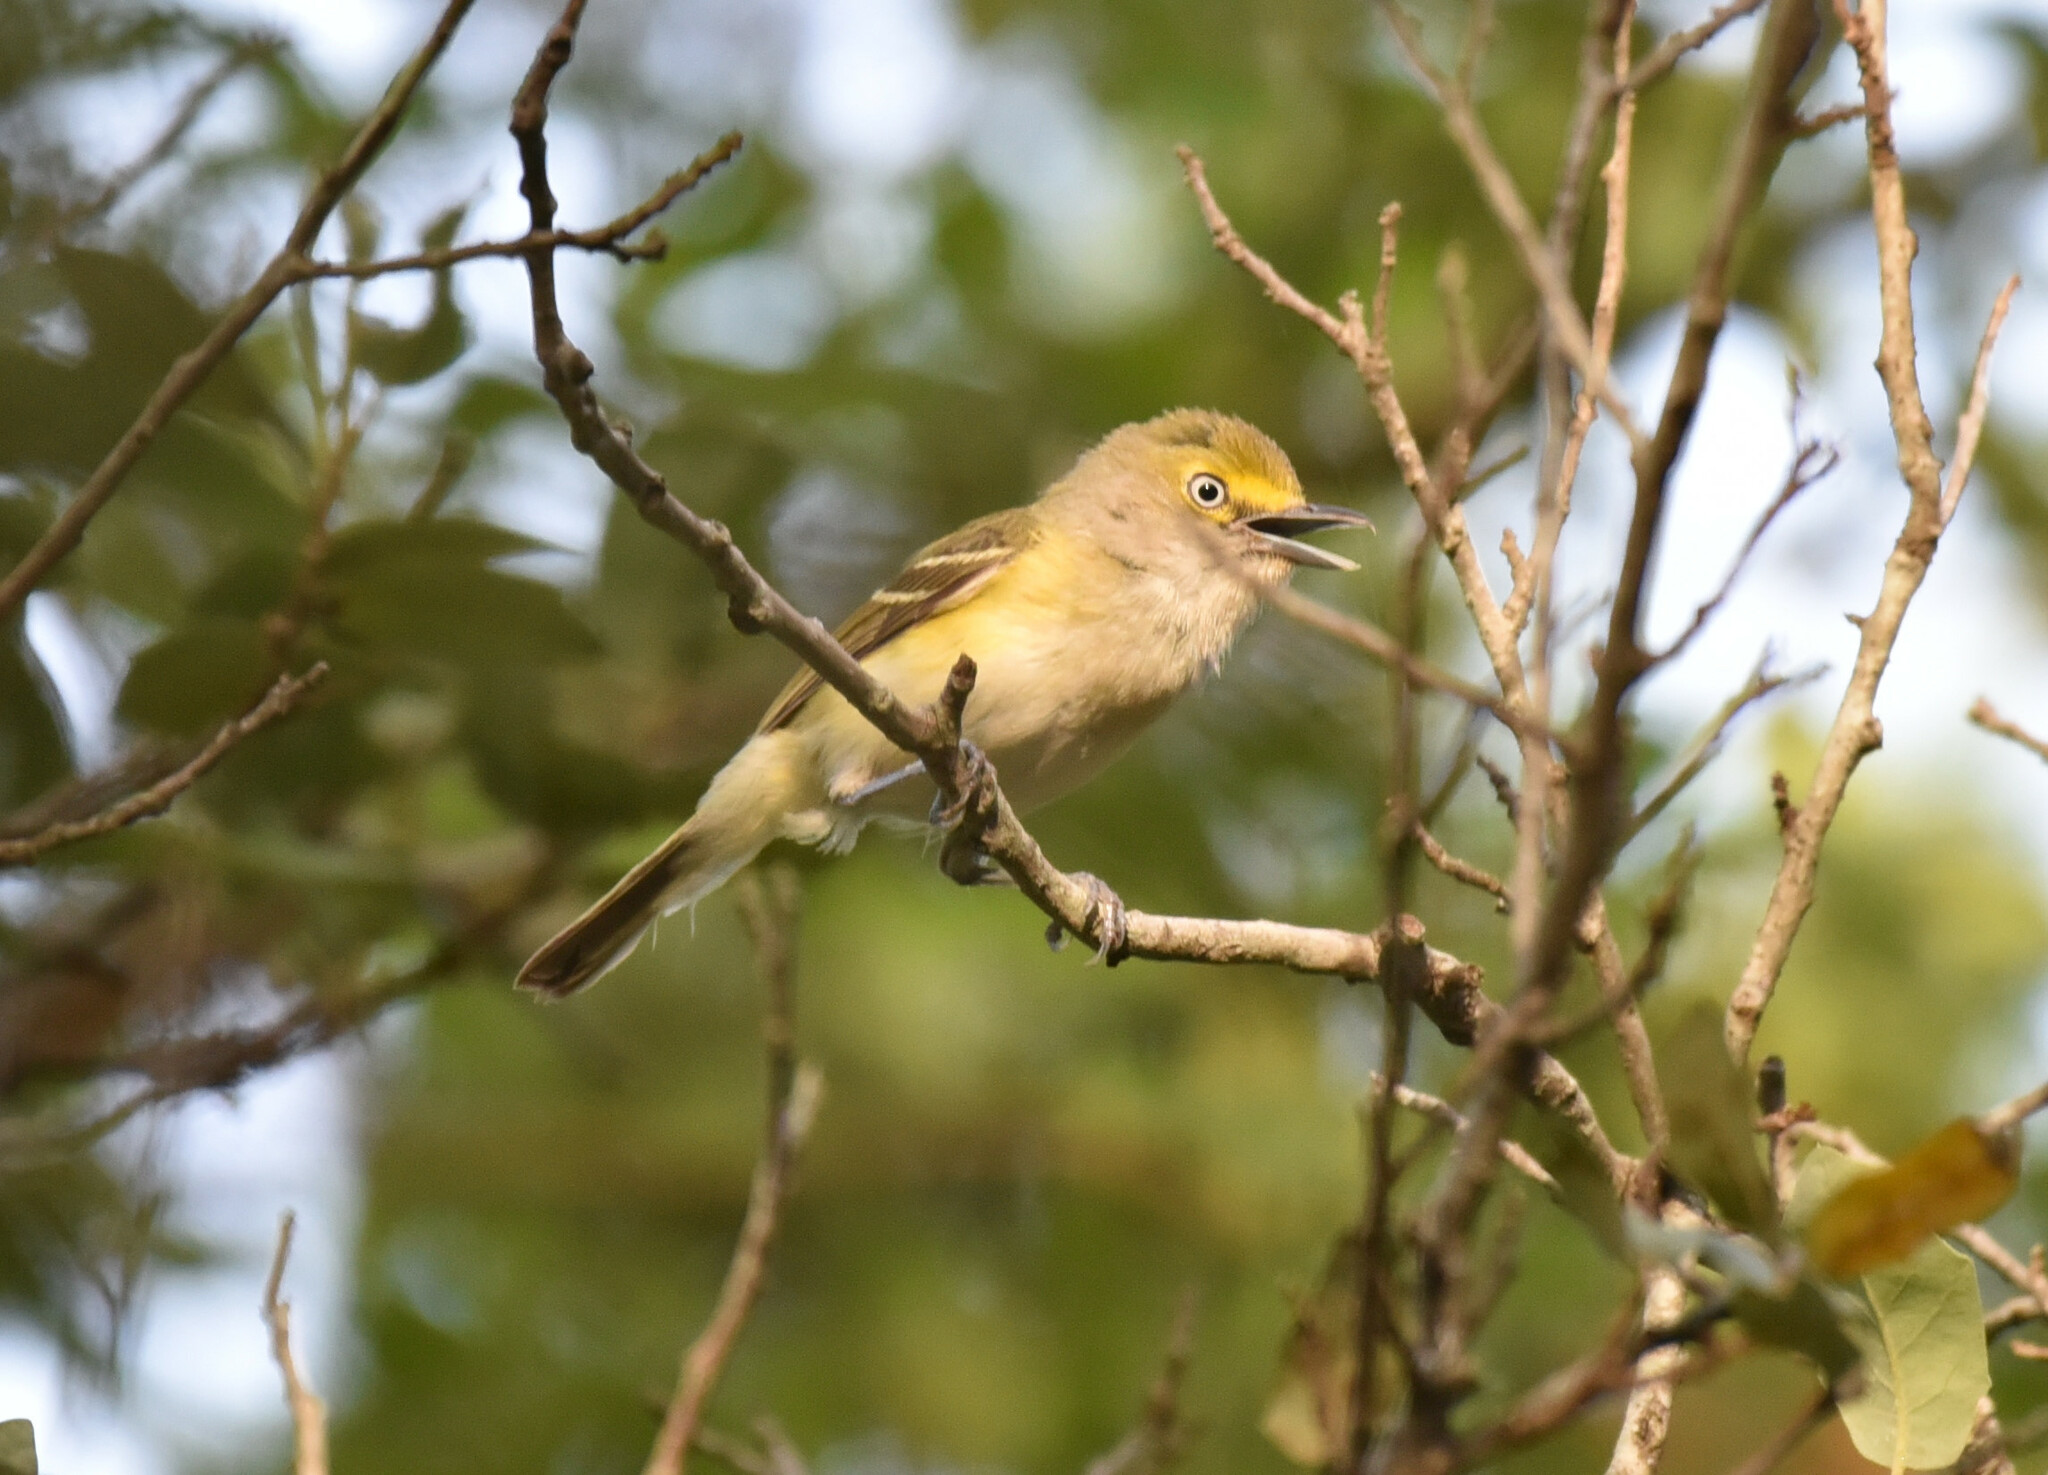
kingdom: Animalia
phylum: Chordata
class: Aves
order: Passeriformes
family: Vireonidae
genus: Vireo
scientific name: Vireo griseus
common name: White-eyed vireo
